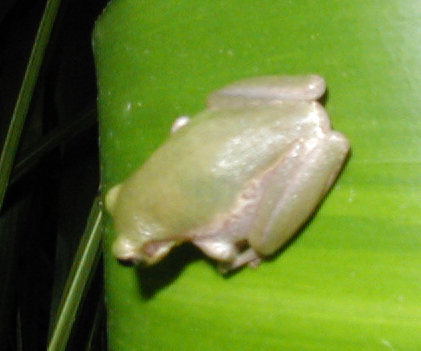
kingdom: Animalia
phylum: Chordata
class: Amphibia
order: Anura
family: Hylidae
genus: Dryophytes
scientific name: Dryophytes squirellus
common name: Squirrel treefrog
